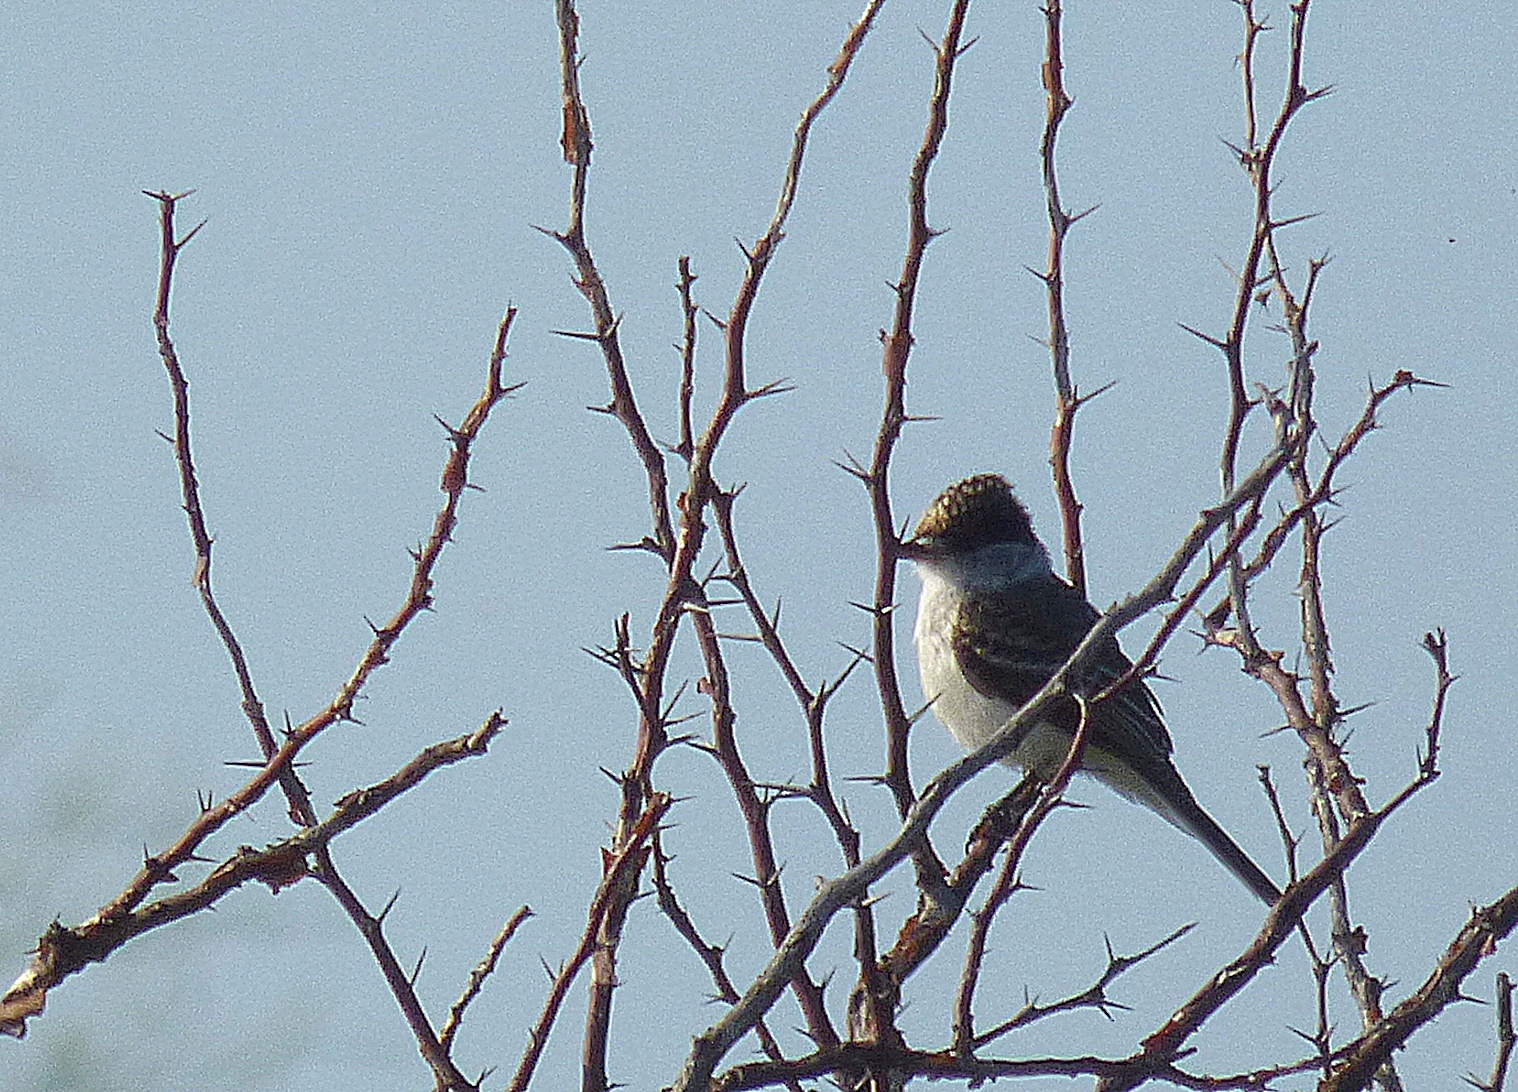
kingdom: Animalia
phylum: Chordata
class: Aves
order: Passeriformes
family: Cotingidae
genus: Xenopsaris
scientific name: Xenopsaris albinucha
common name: White-naped xenopsaris
